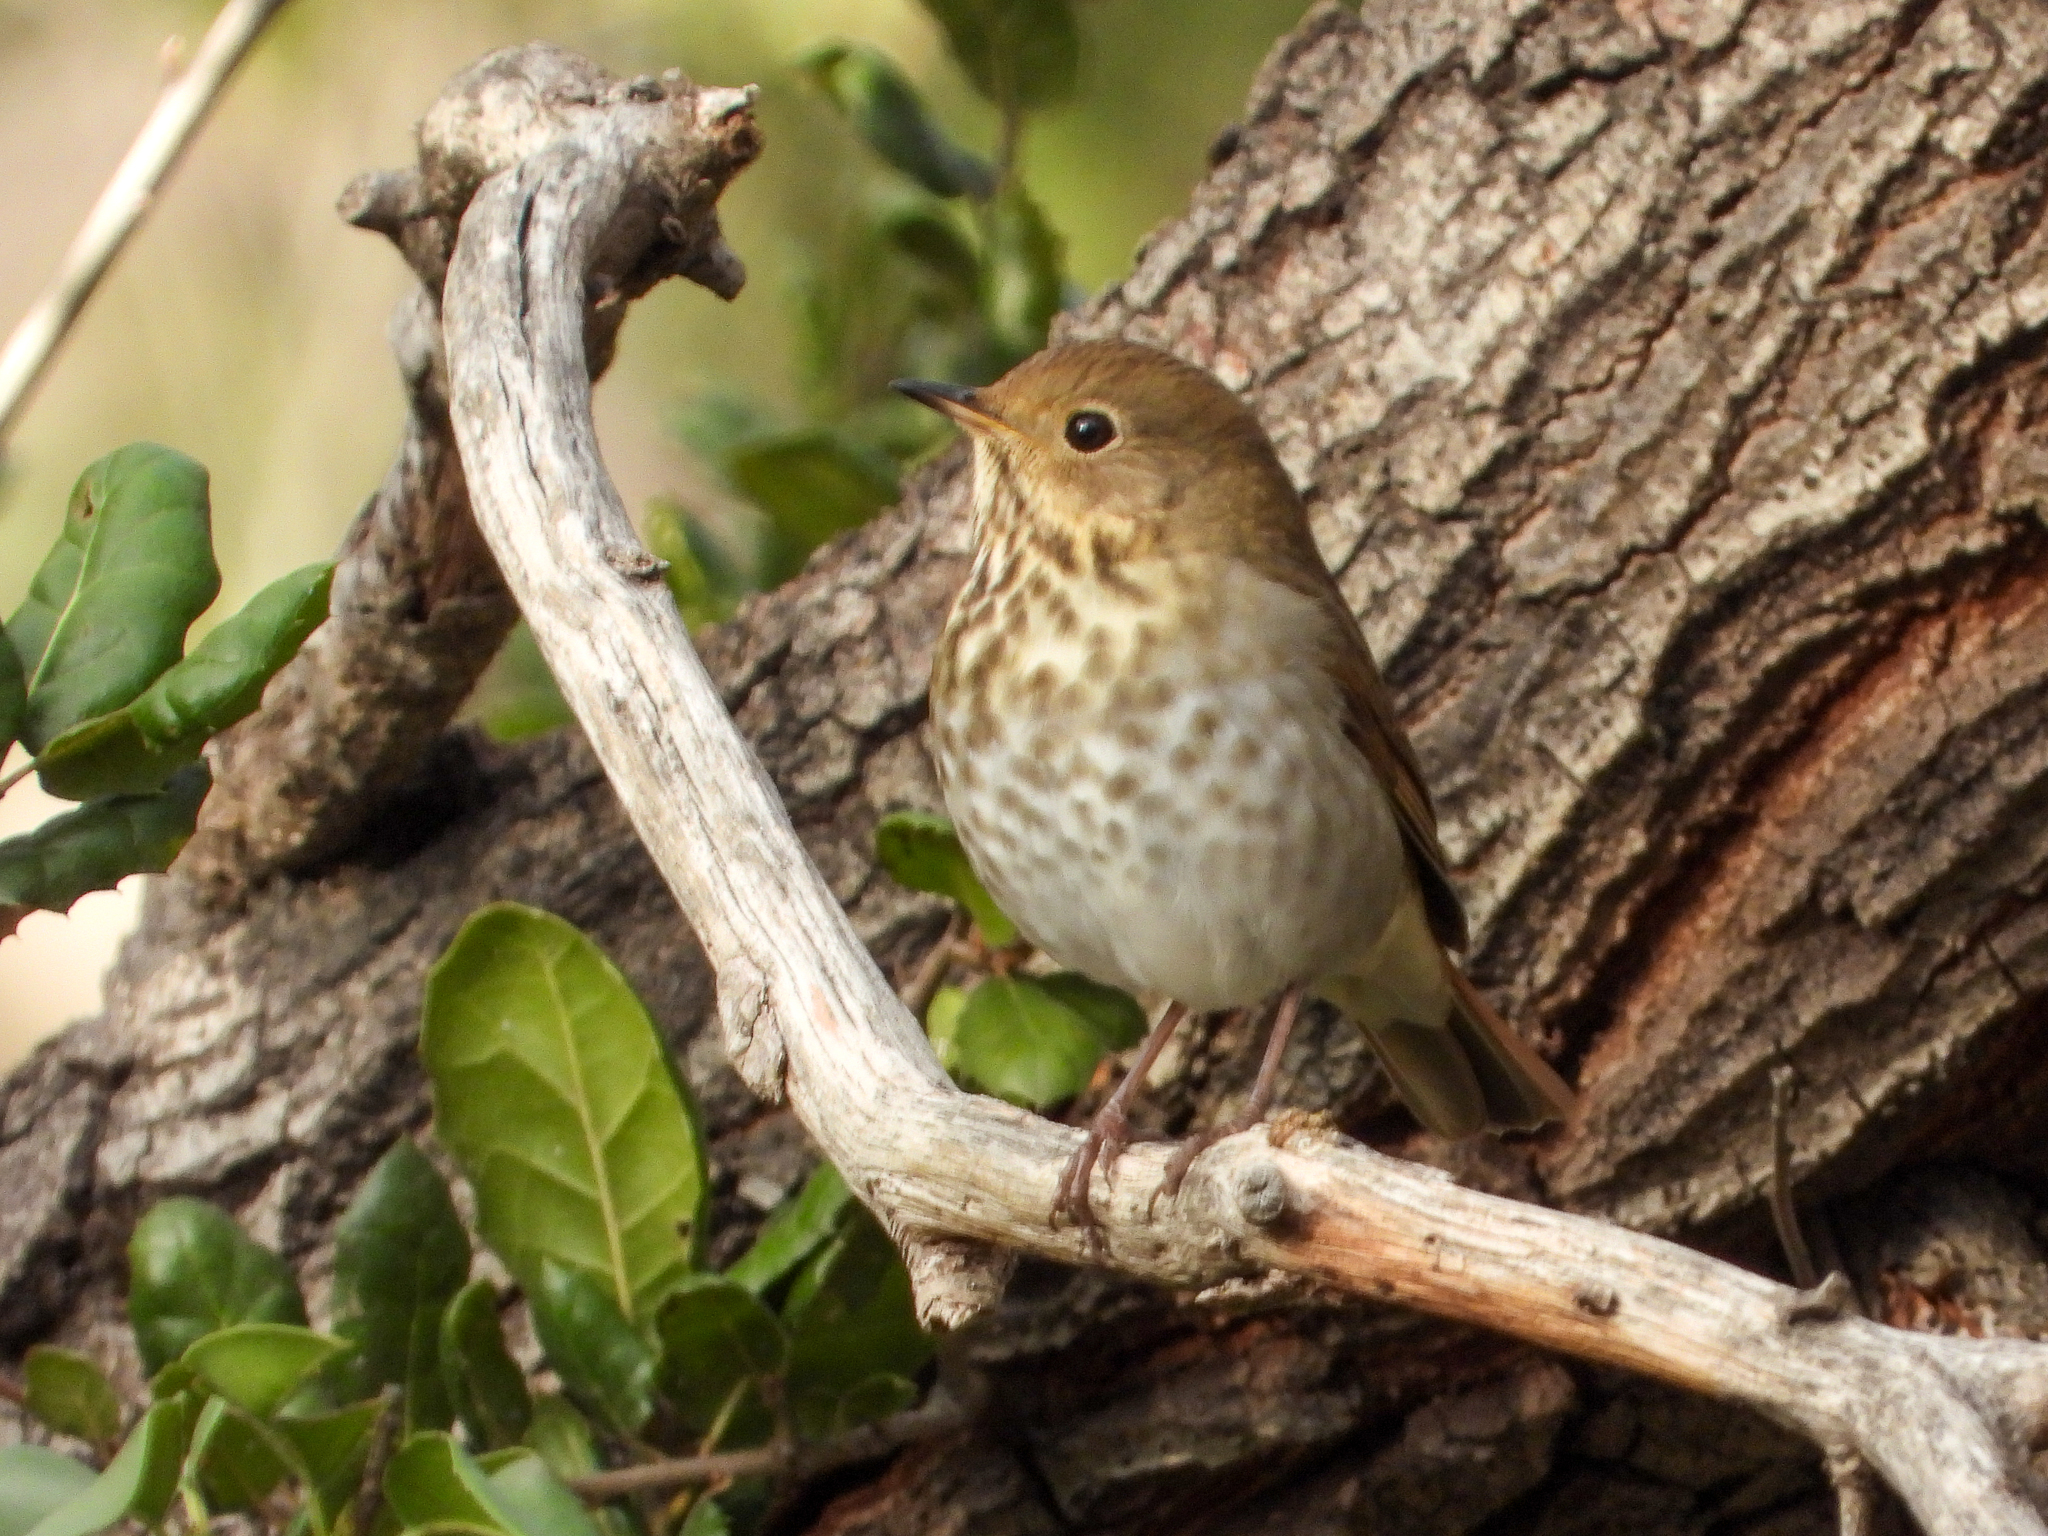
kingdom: Animalia
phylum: Chordata
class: Aves
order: Passeriformes
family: Turdidae
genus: Catharus
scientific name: Catharus guttatus
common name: Hermit thrush
